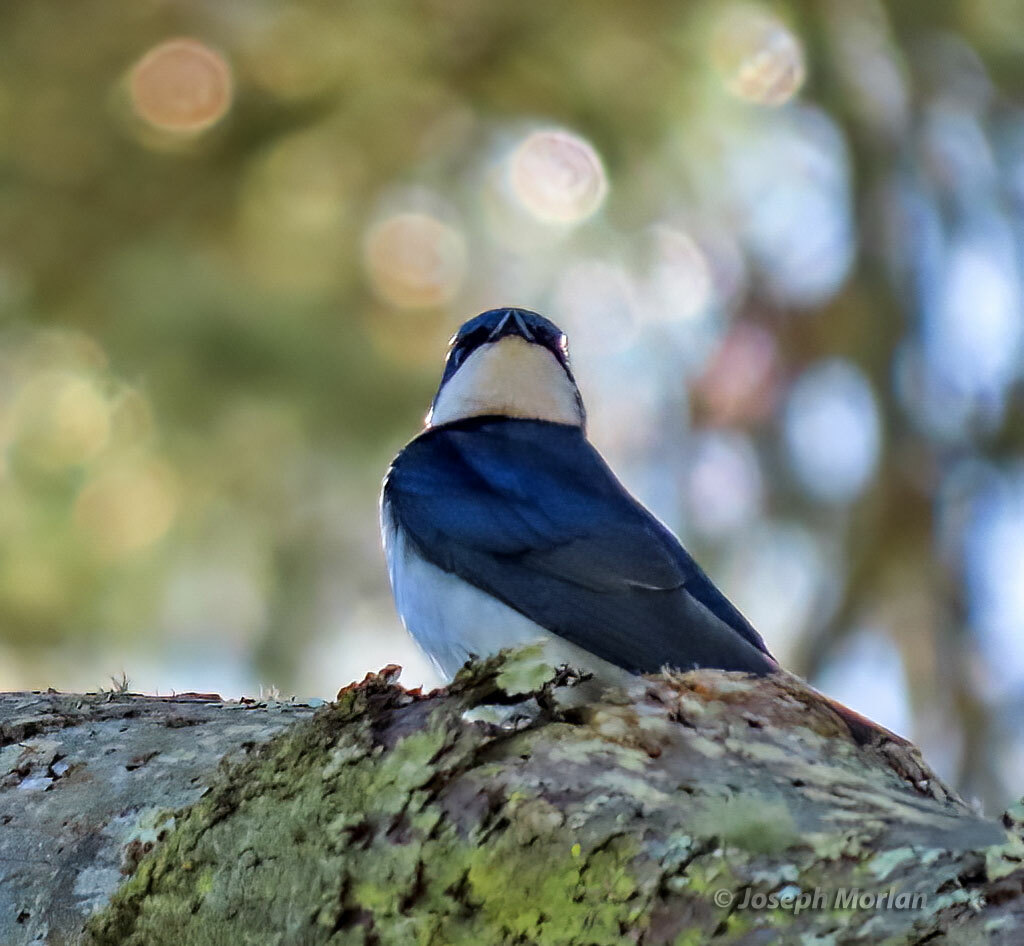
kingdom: Animalia
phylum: Chordata
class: Aves
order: Passeriformes
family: Hirundinidae
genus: Tachycineta
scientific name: Tachycineta bicolor
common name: Tree swallow
